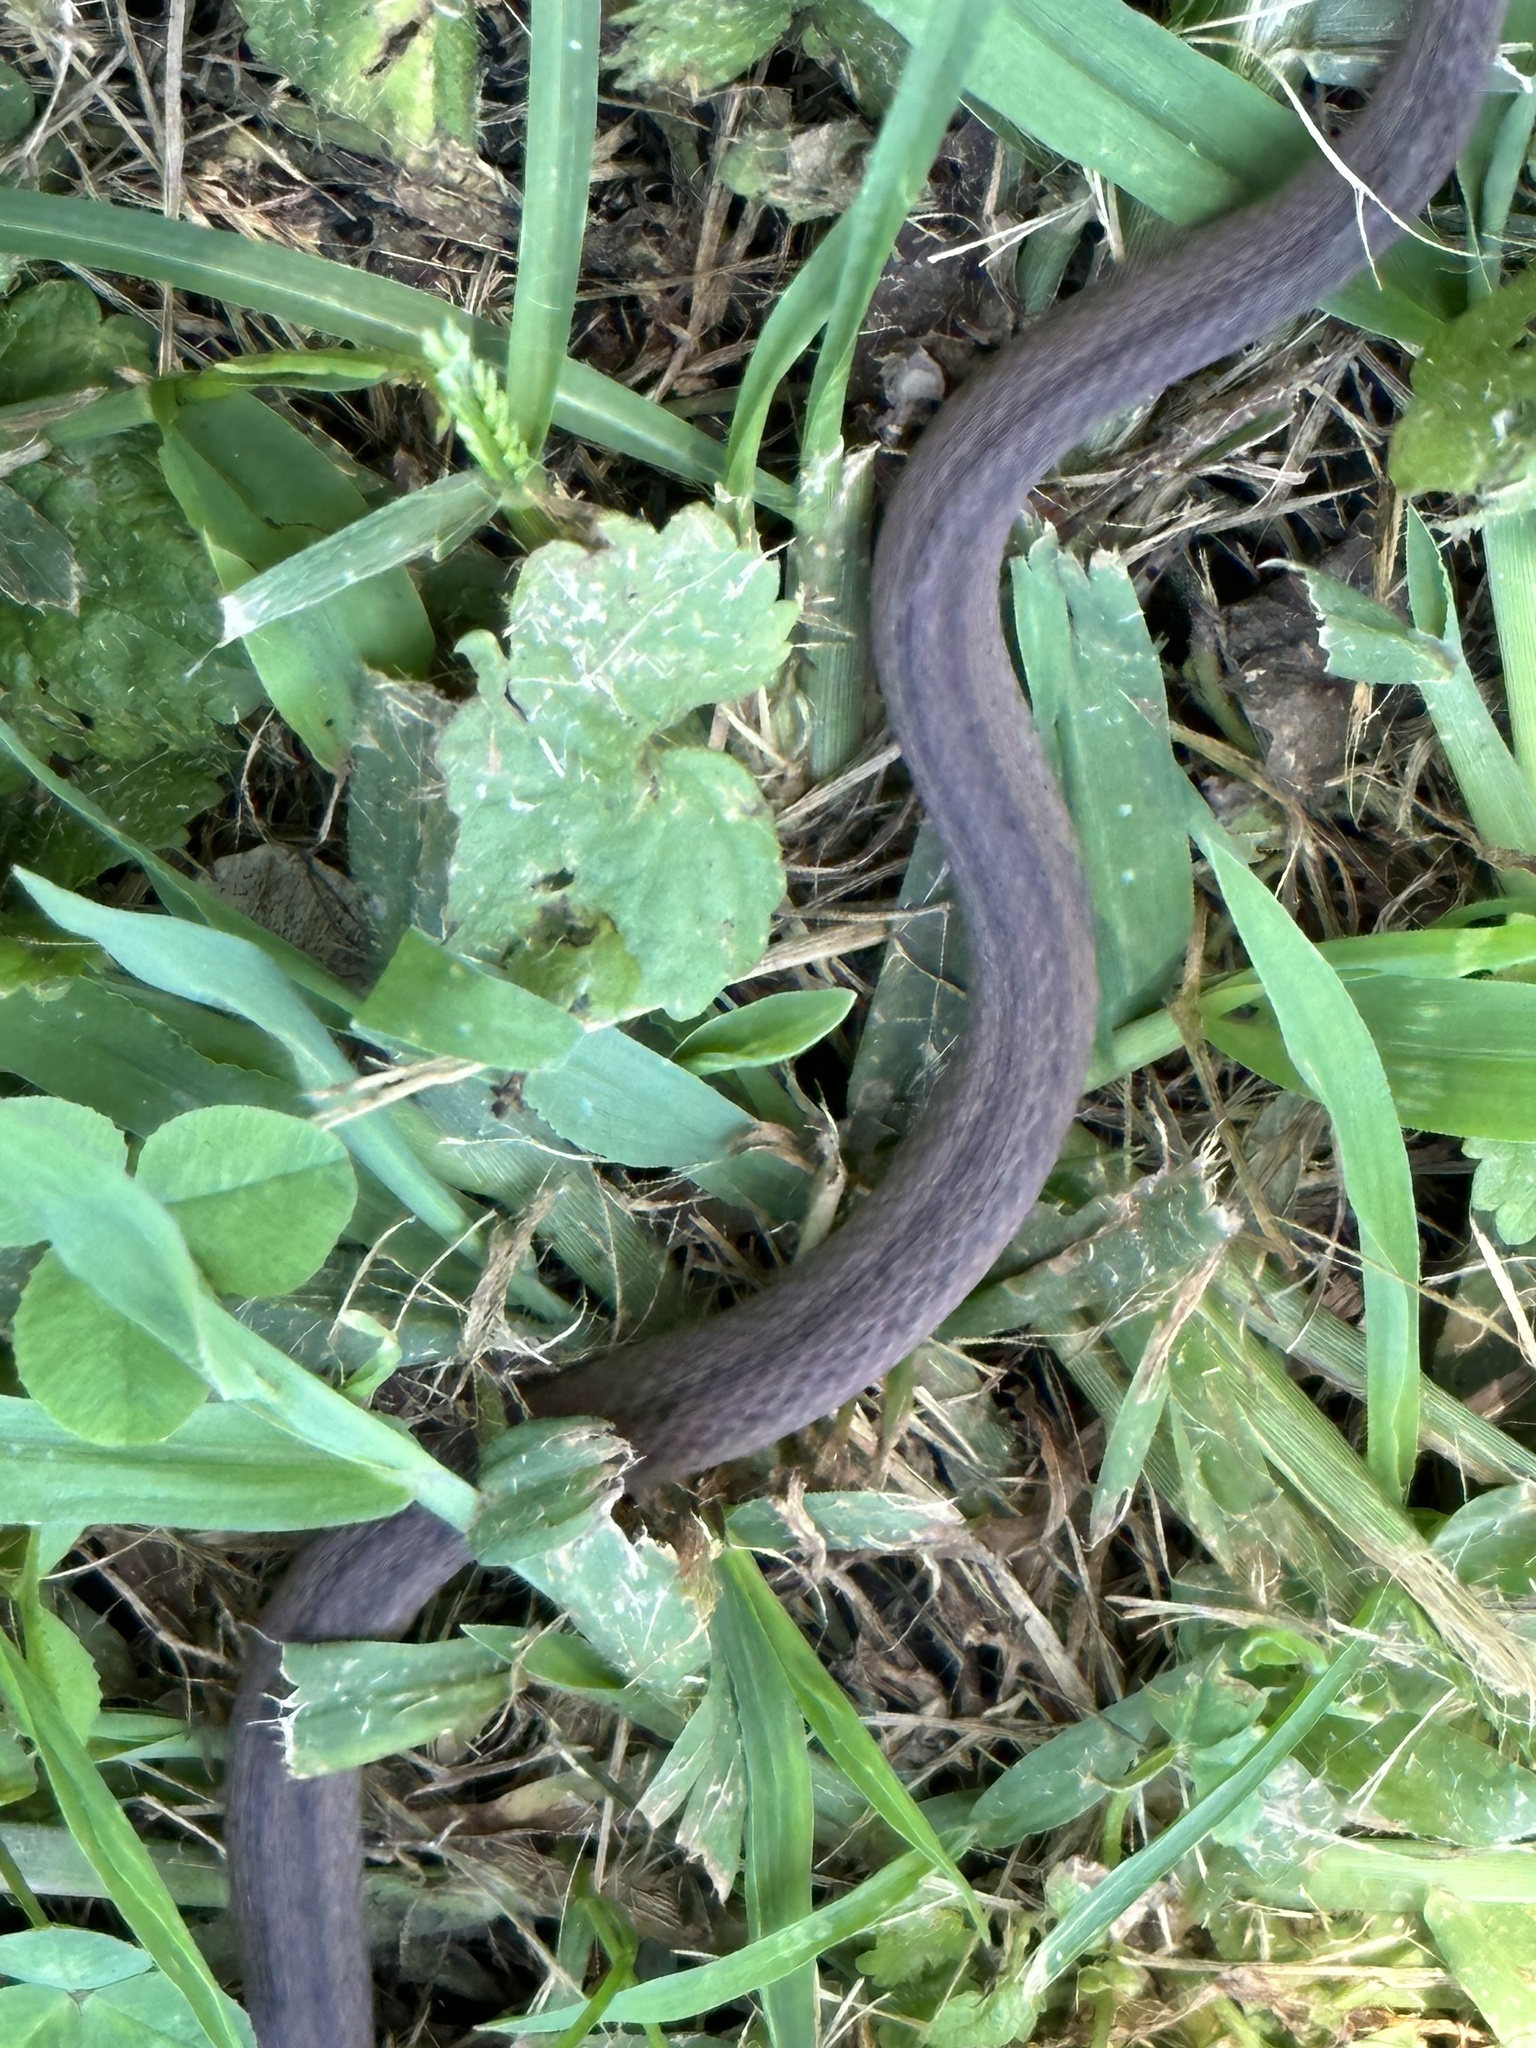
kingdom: Animalia
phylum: Chordata
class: Squamata
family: Colubridae
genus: Storeria
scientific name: Storeria dekayi
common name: (dekay’s) brown snake
